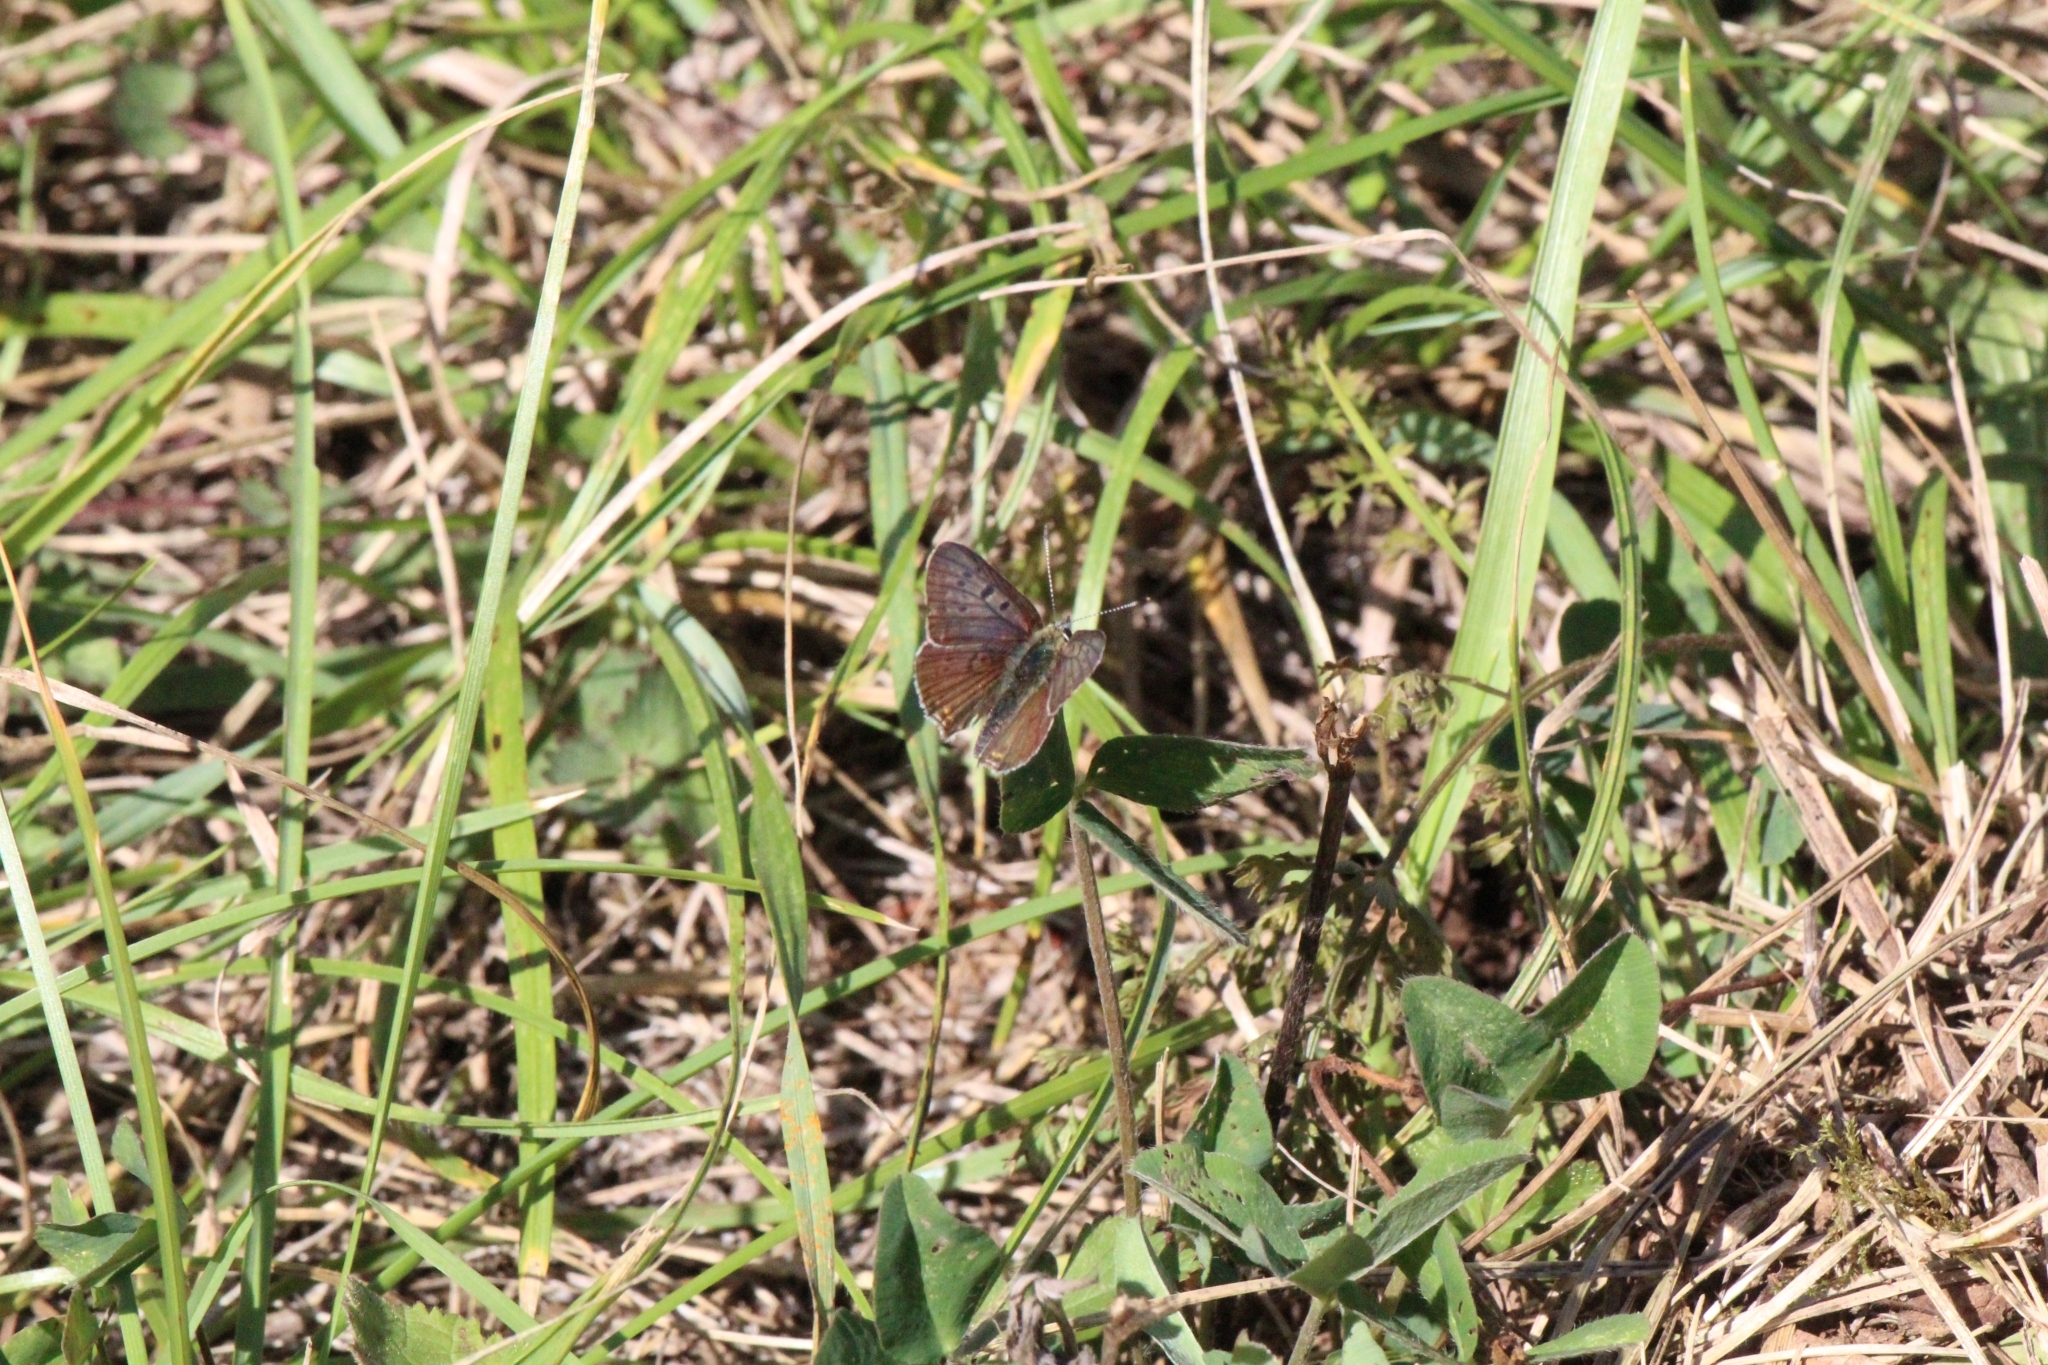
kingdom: Animalia
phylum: Arthropoda
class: Insecta
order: Lepidoptera
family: Lycaenidae
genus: Loweia
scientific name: Loweia tityrus
